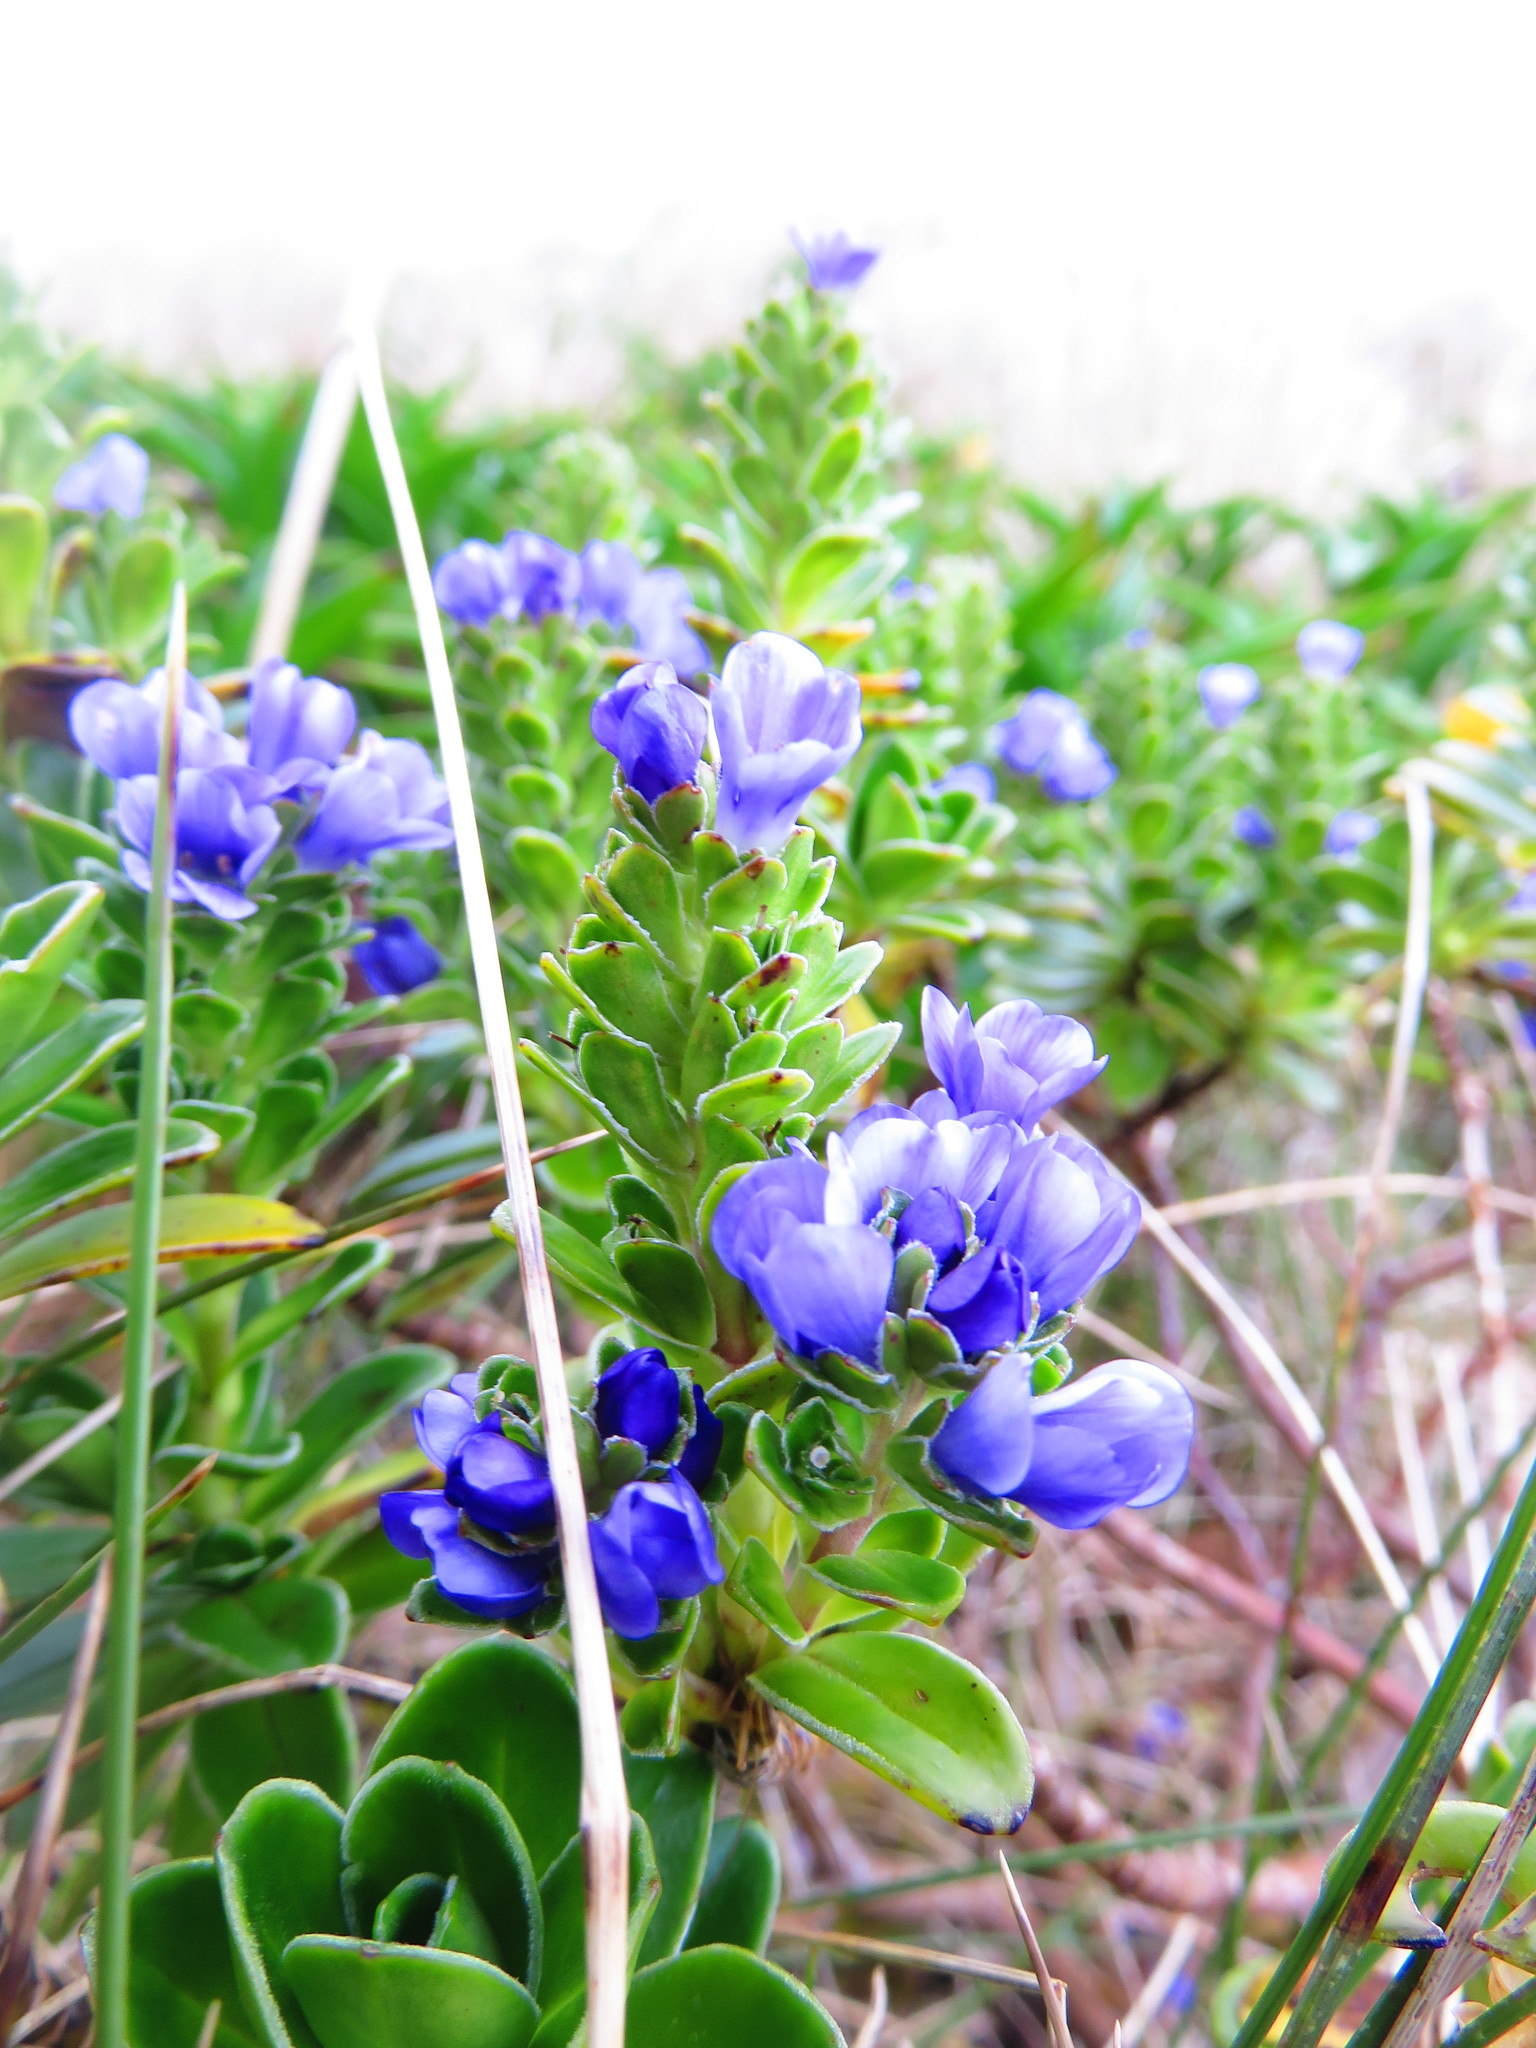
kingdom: Plantae
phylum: Tracheophyta
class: Magnoliopsida
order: Lamiales
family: Plantaginaceae
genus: Veronica
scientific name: Veronica benthamii
